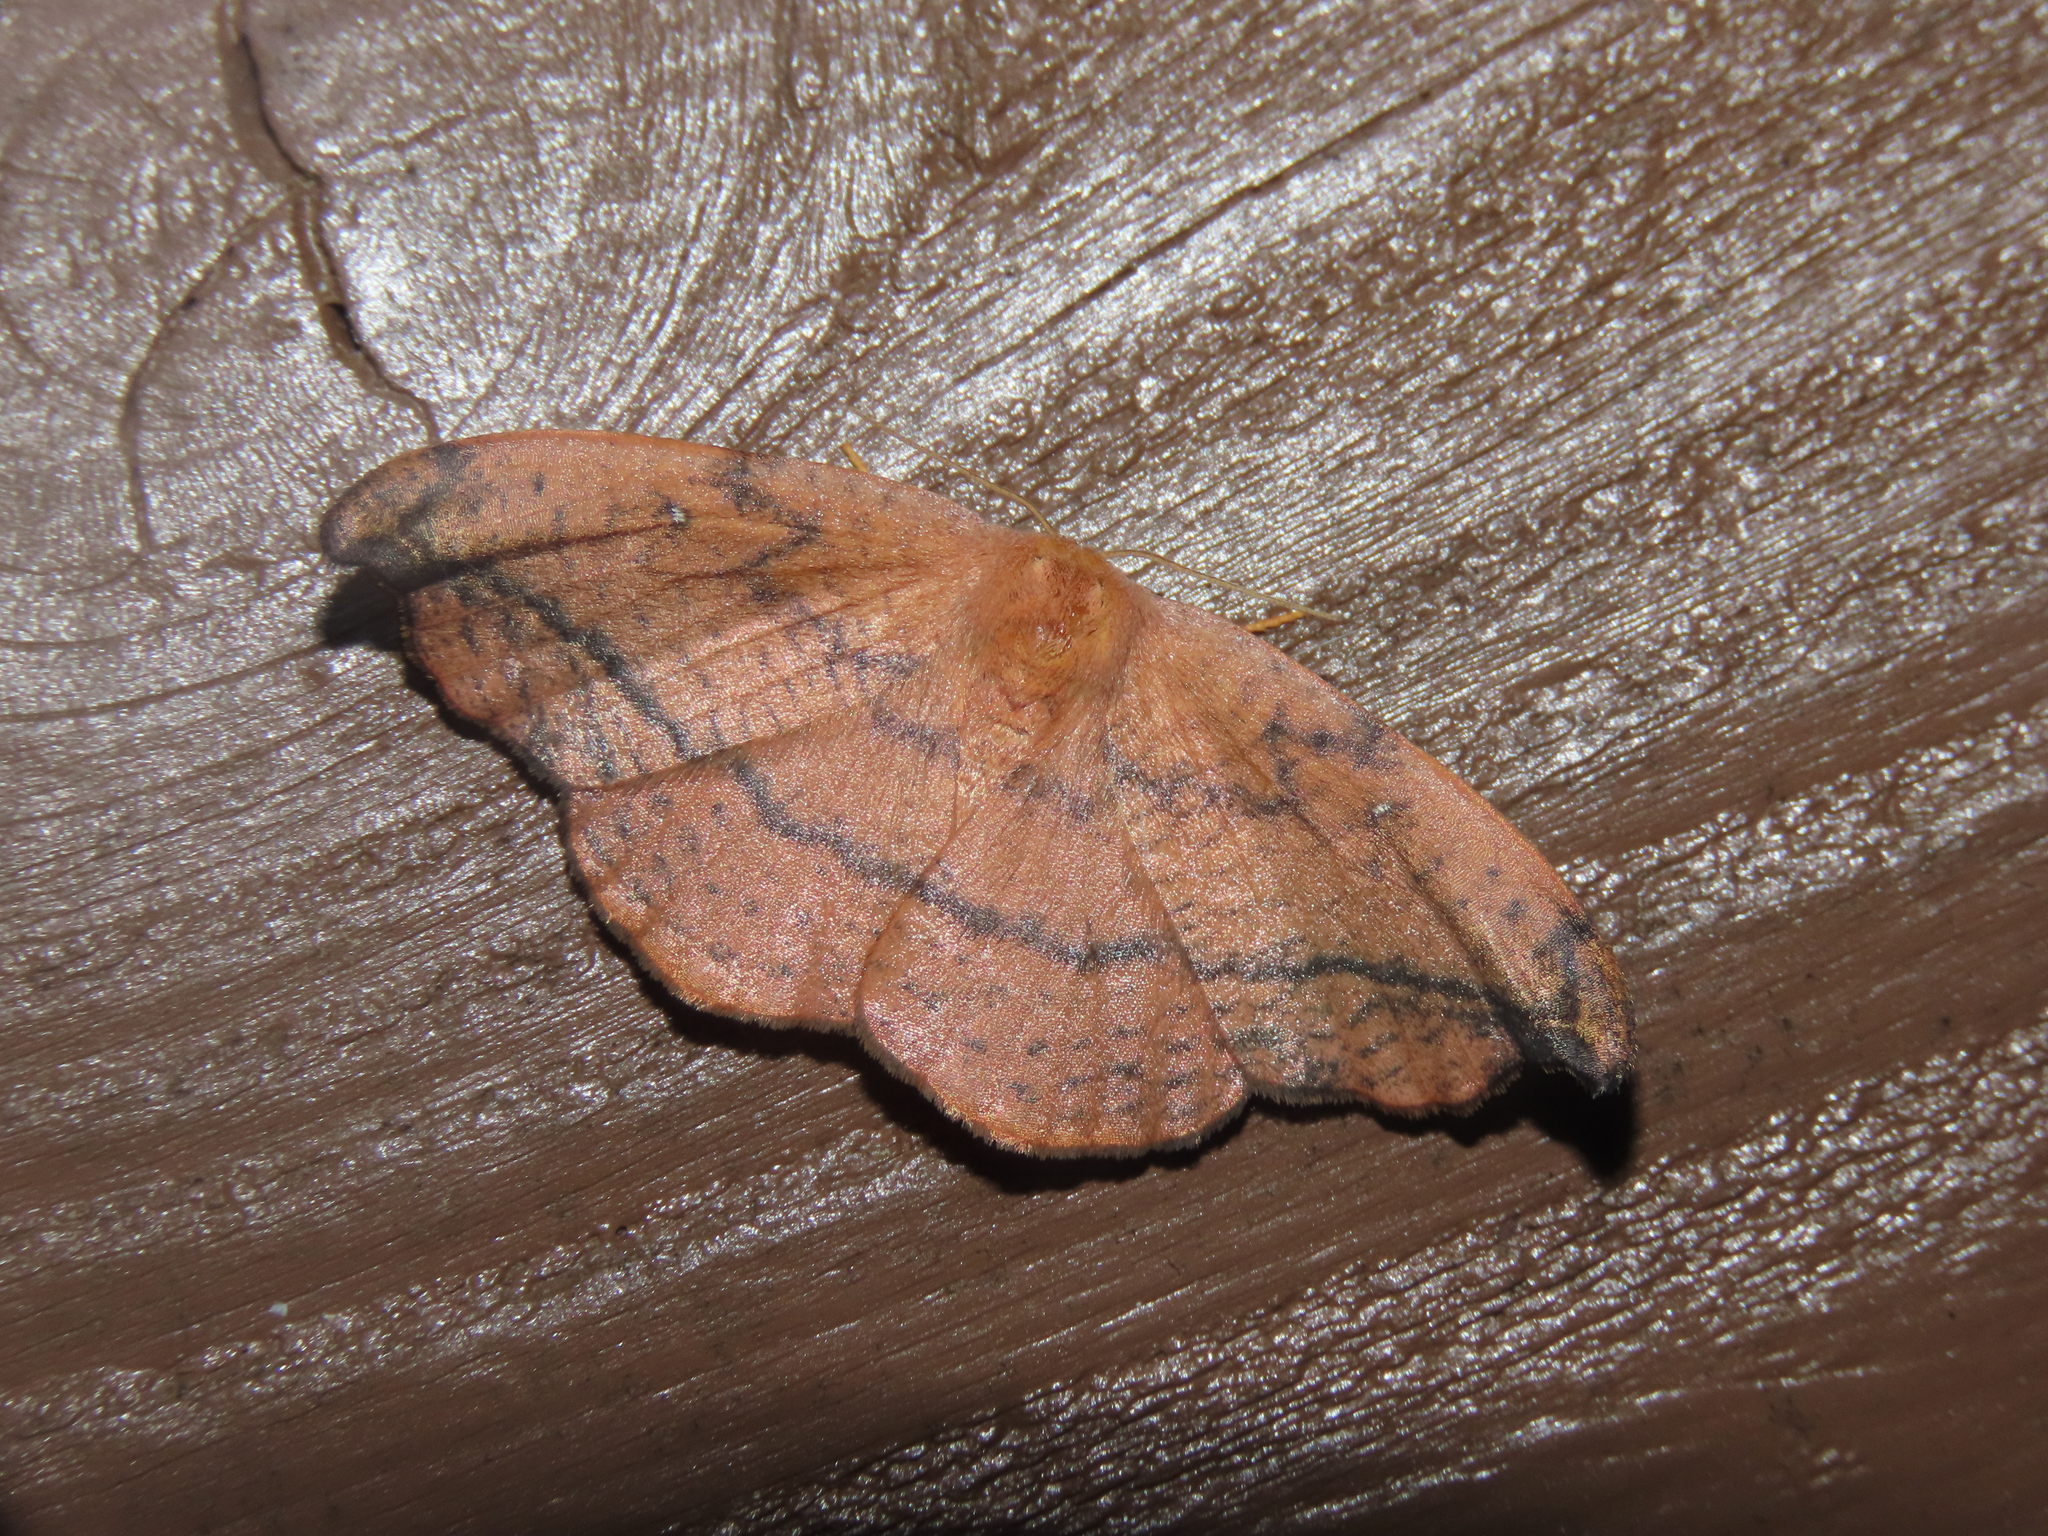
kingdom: Animalia
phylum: Arthropoda
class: Insecta
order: Lepidoptera
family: Drepanidae
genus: Oreta
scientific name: Oreta rosea
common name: Rose hooktip
